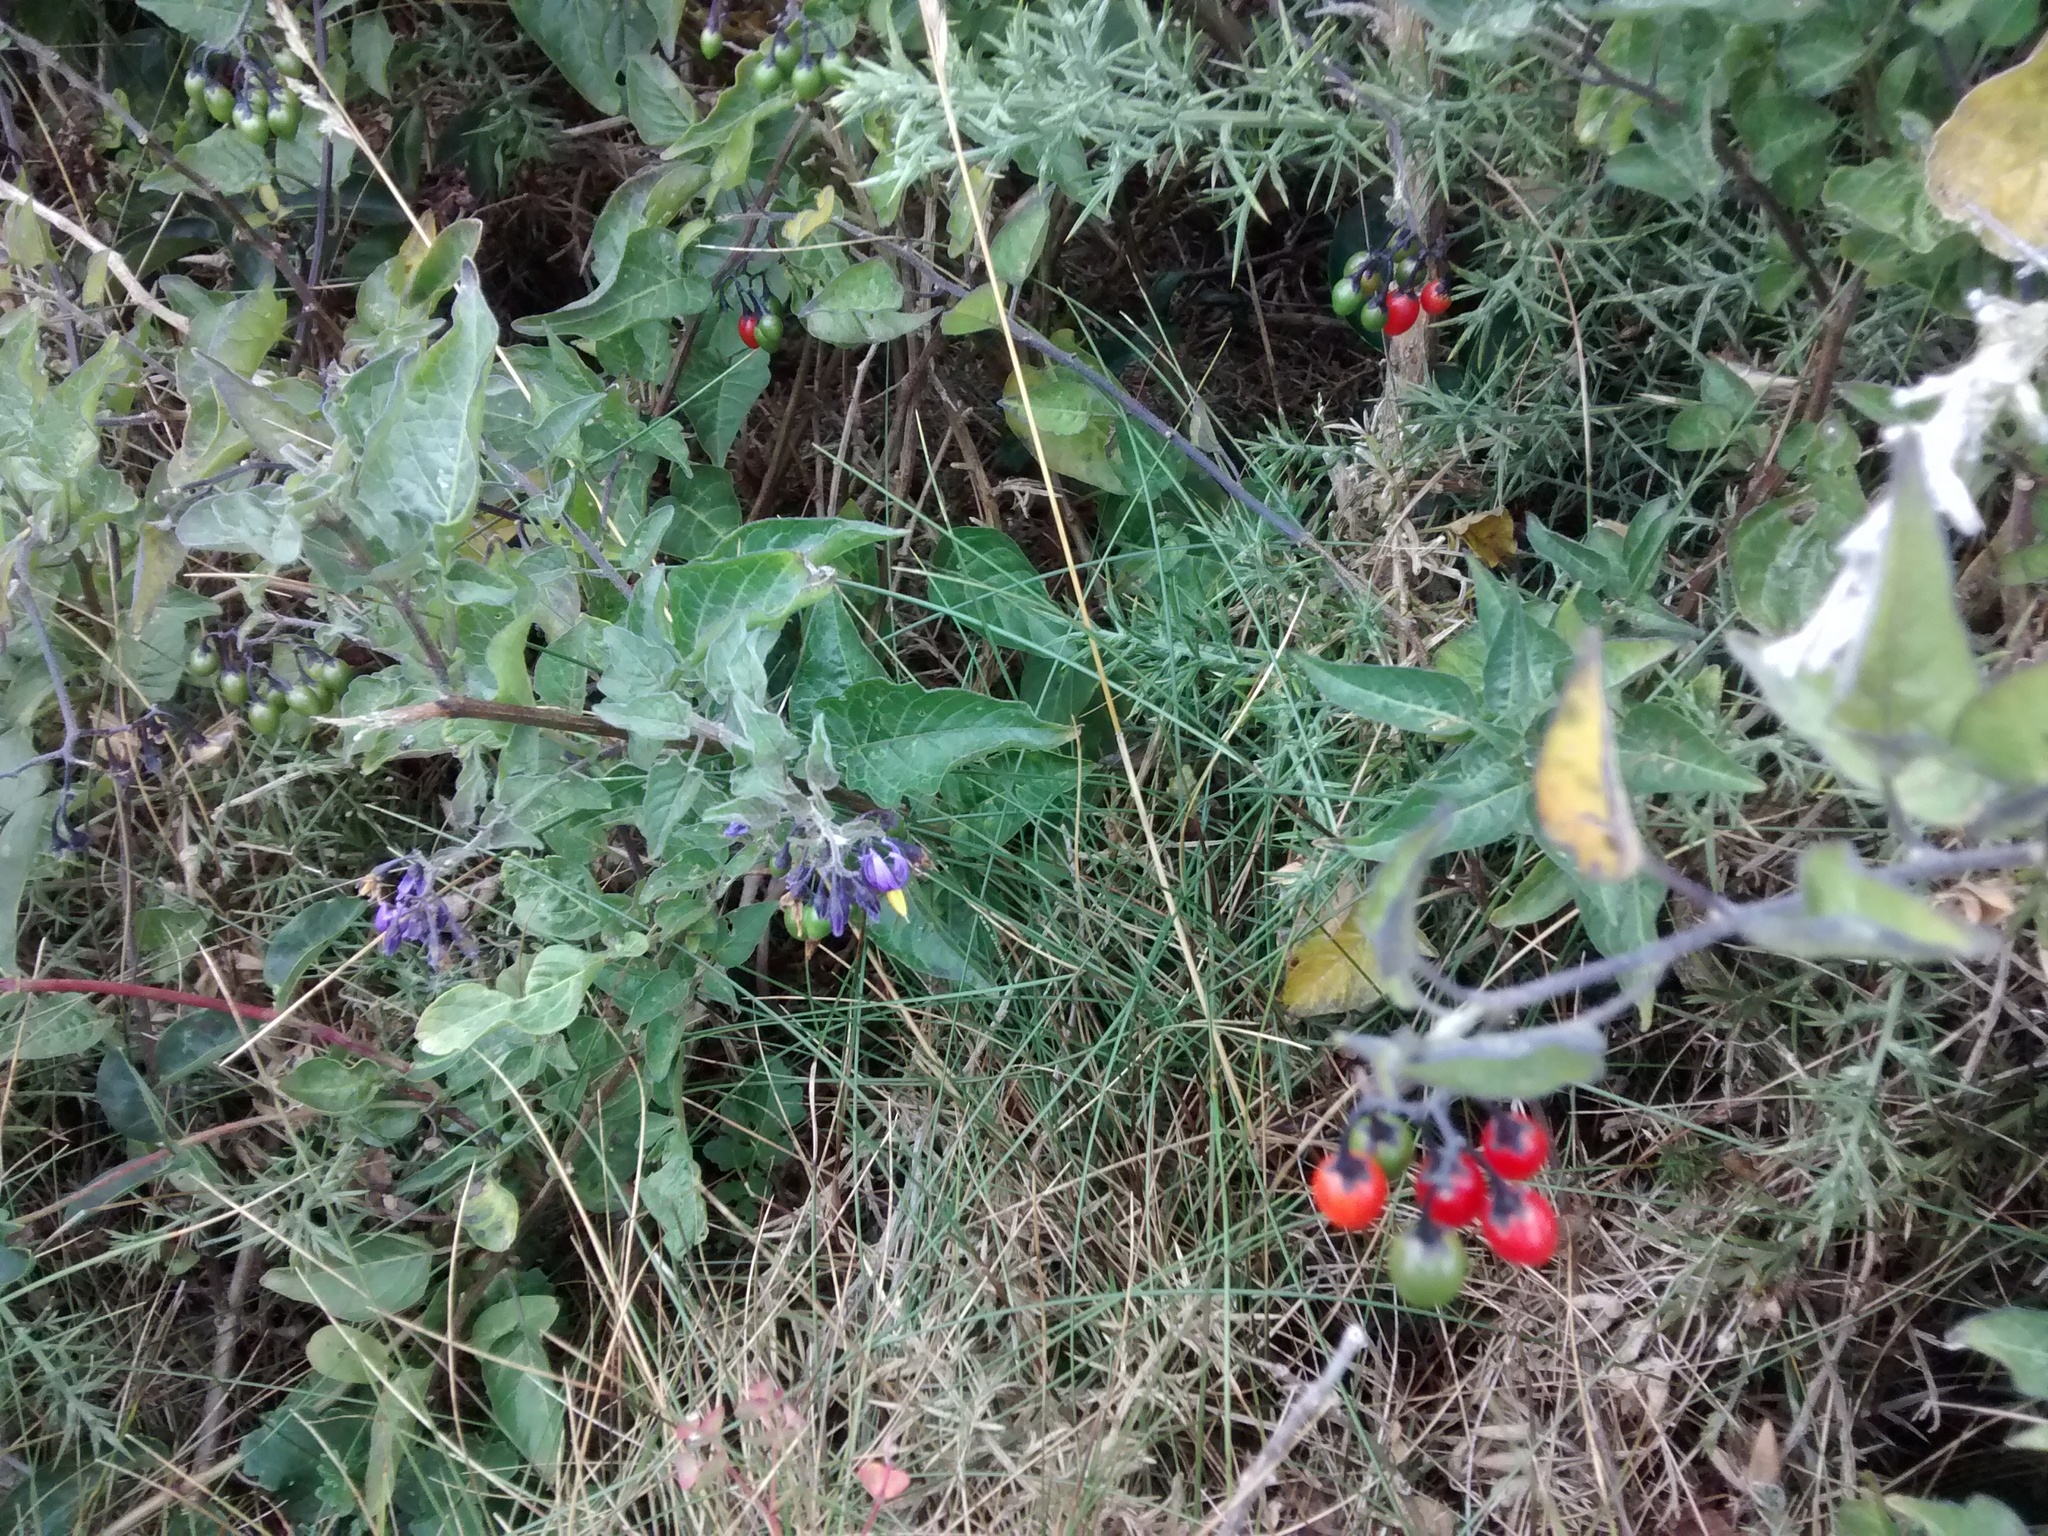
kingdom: Plantae
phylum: Tracheophyta
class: Magnoliopsida
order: Solanales
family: Solanaceae
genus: Solanum
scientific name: Solanum dulcamara
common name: Climbing nightshade
